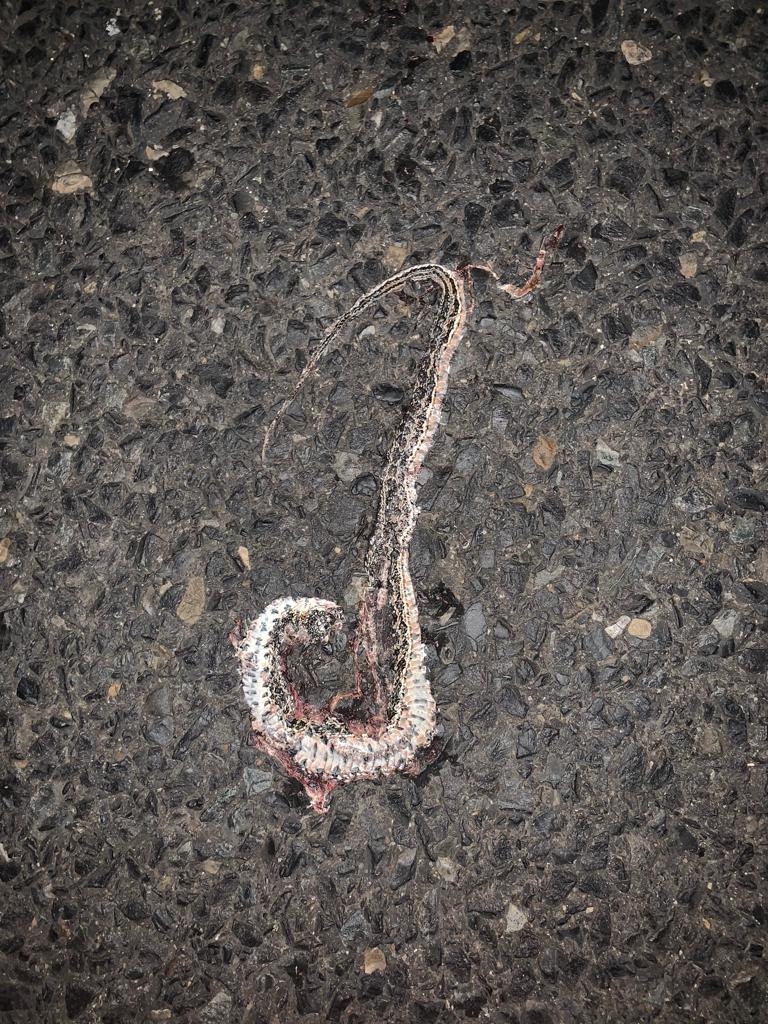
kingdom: Animalia
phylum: Chordata
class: Squamata
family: Psammophiidae
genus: Psammophylax
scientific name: Psammophylax rhombeatus
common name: Rhombic skaapsteker
